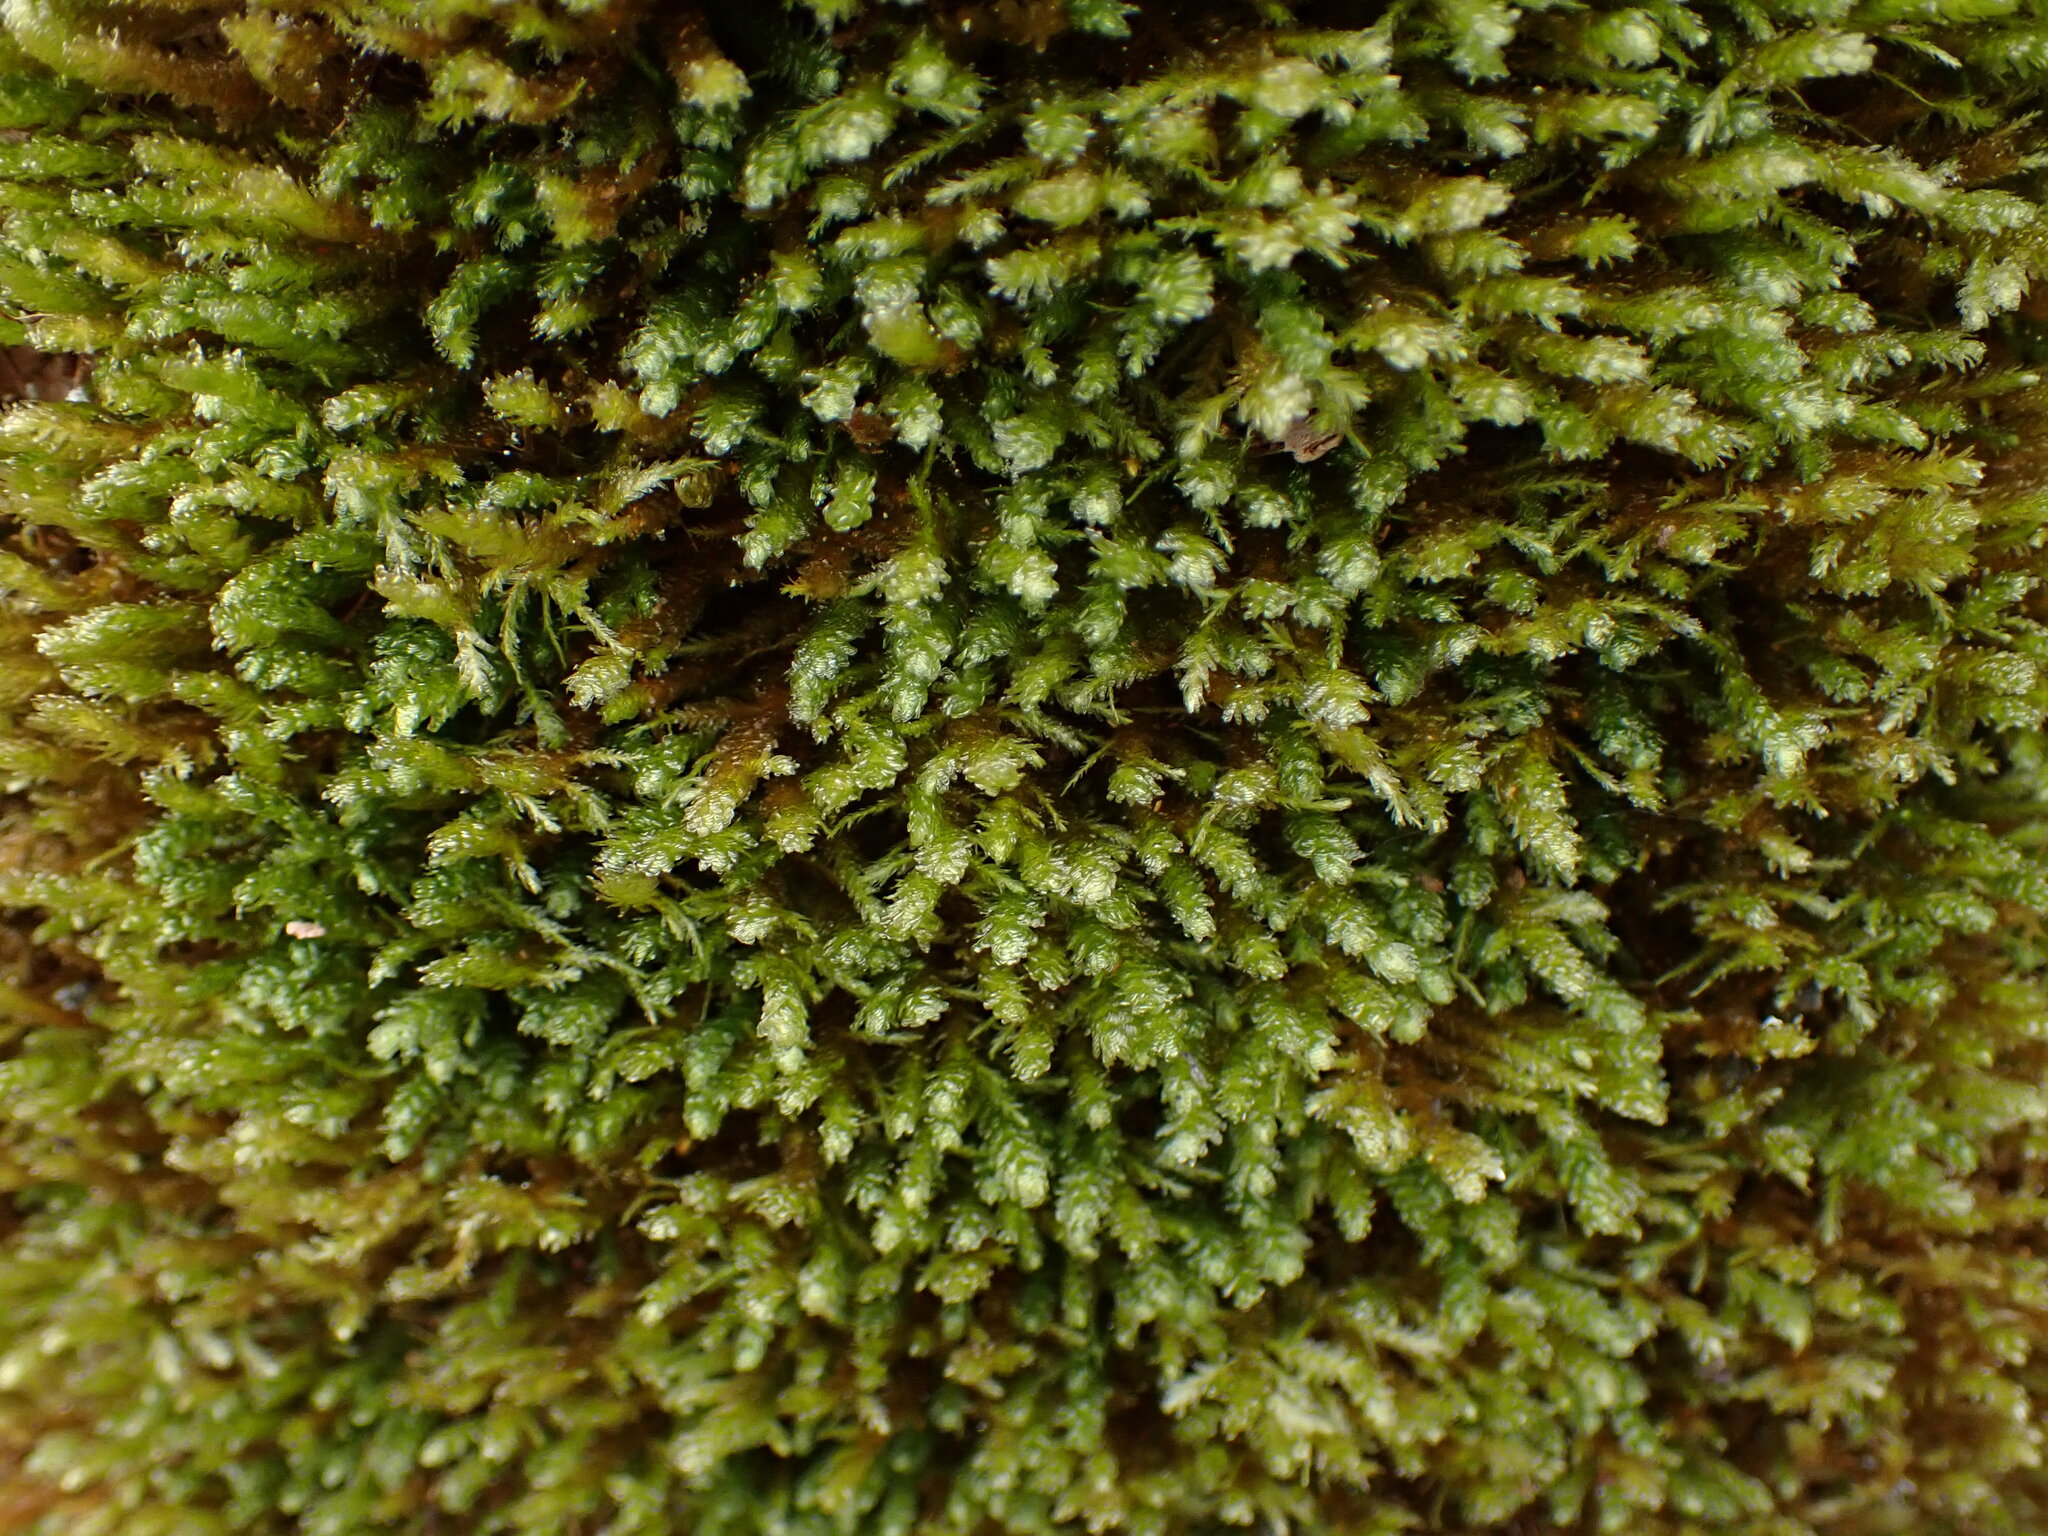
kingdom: Plantae
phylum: Bryophyta
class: Bryopsida
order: Hypnales
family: Neckeraceae
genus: Metaneckera
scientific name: Metaneckera menziesii
